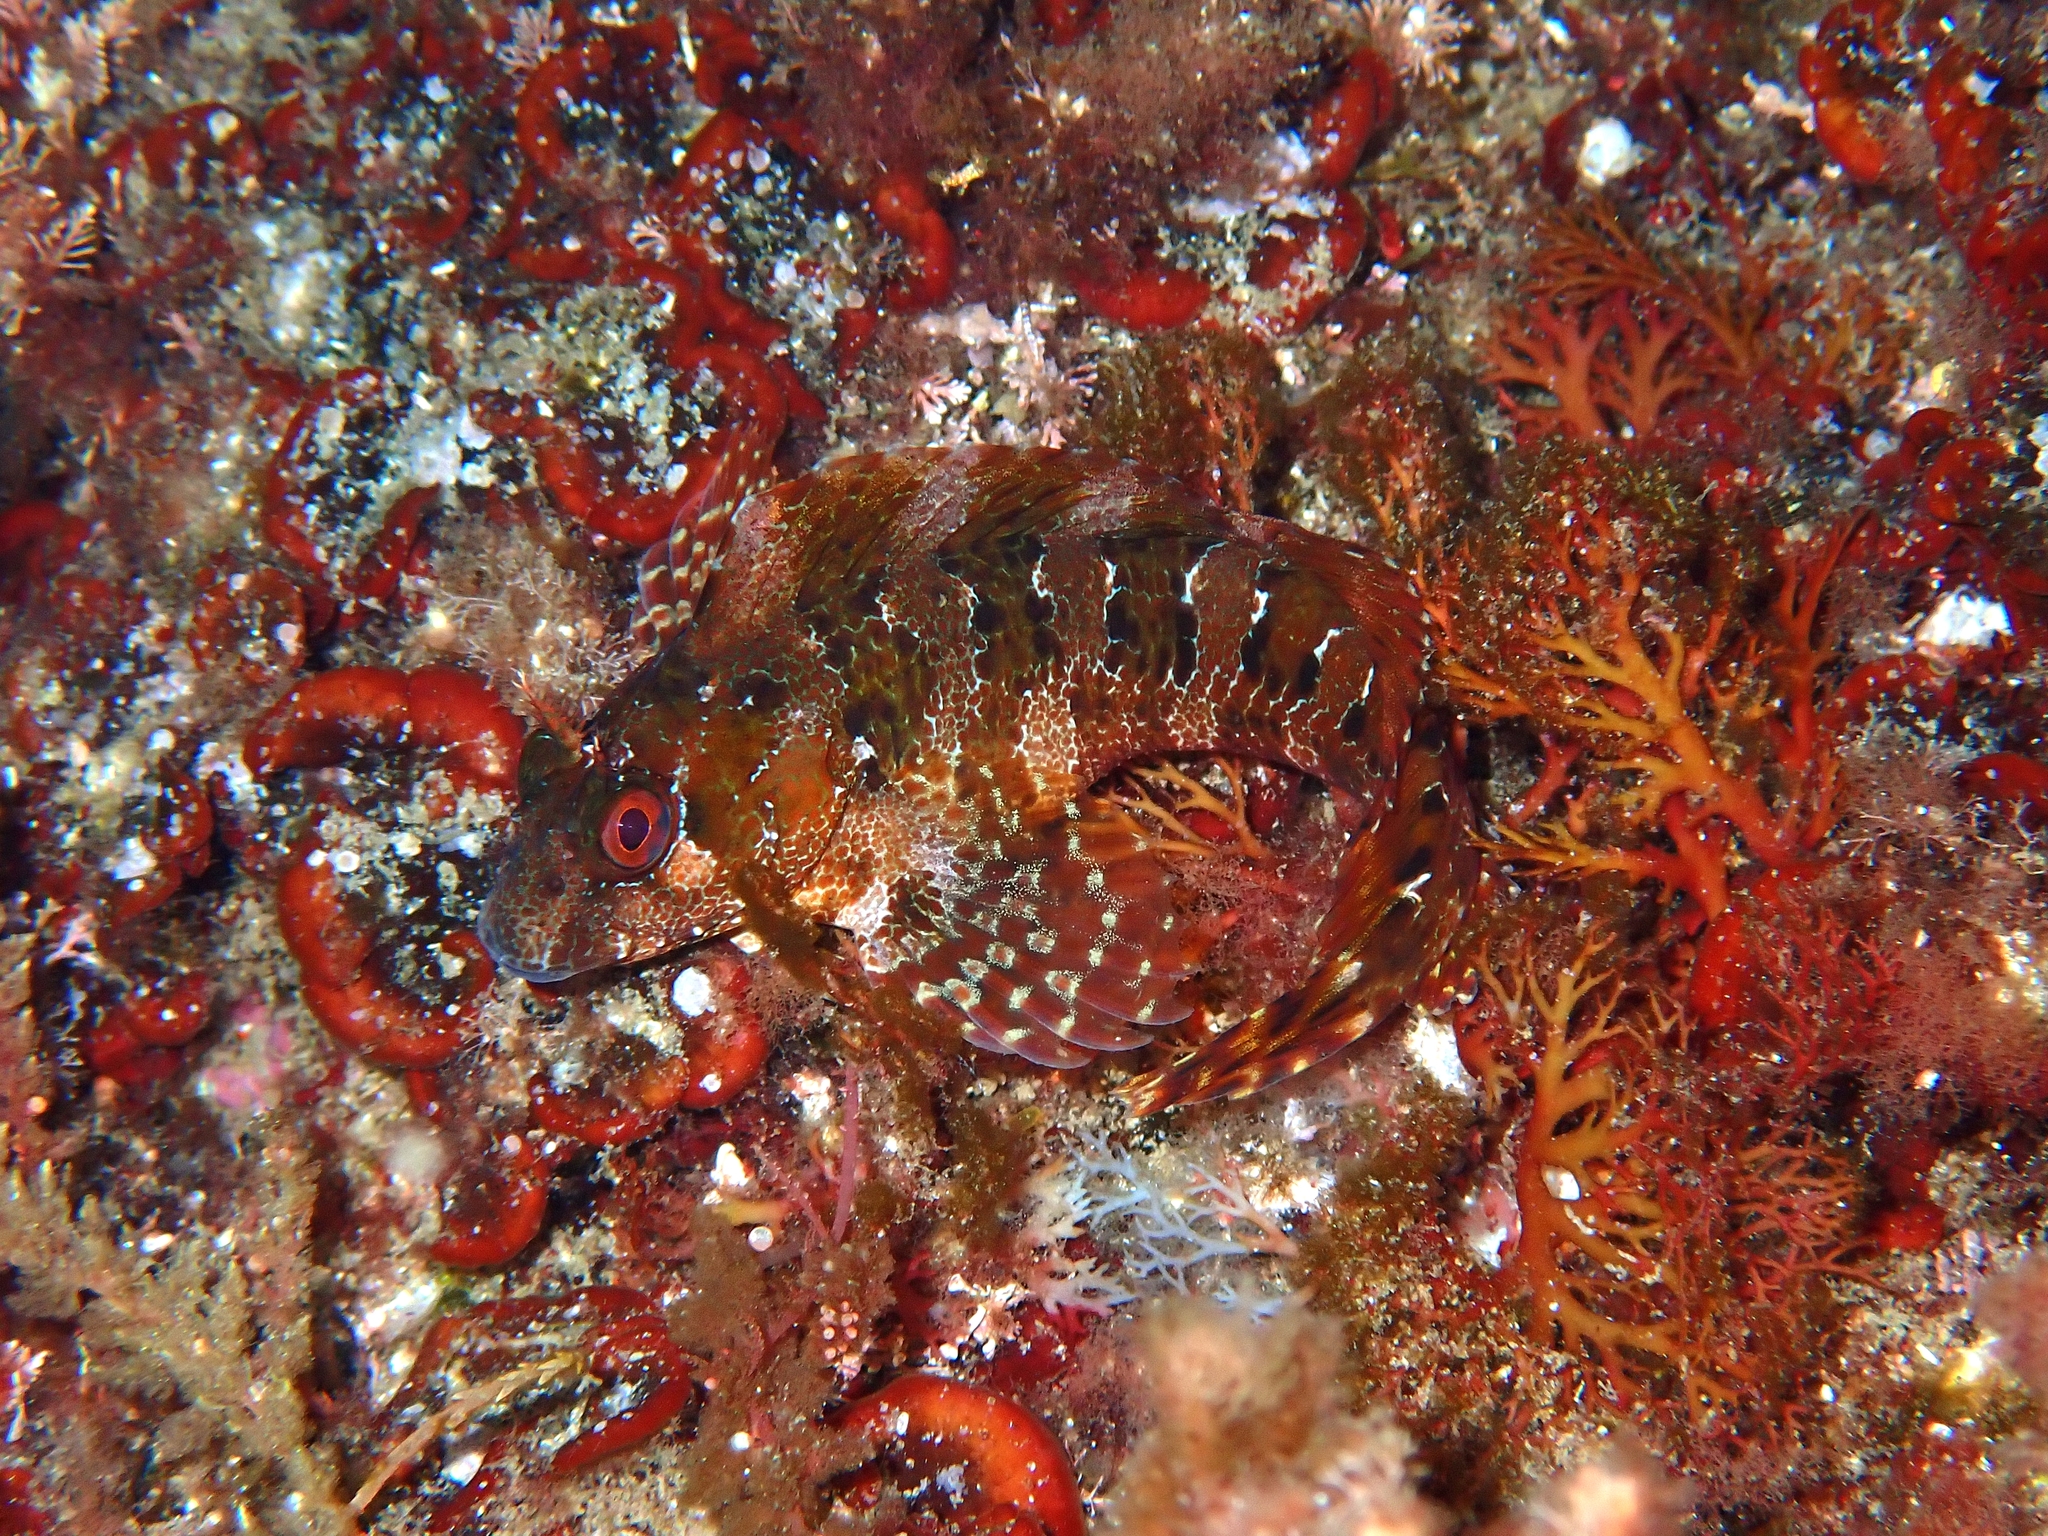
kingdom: Animalia
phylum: Chordata
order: Perciformes
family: Blenniidae
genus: Parablennius
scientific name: Parablennius gattorugine
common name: Tompot blenny
